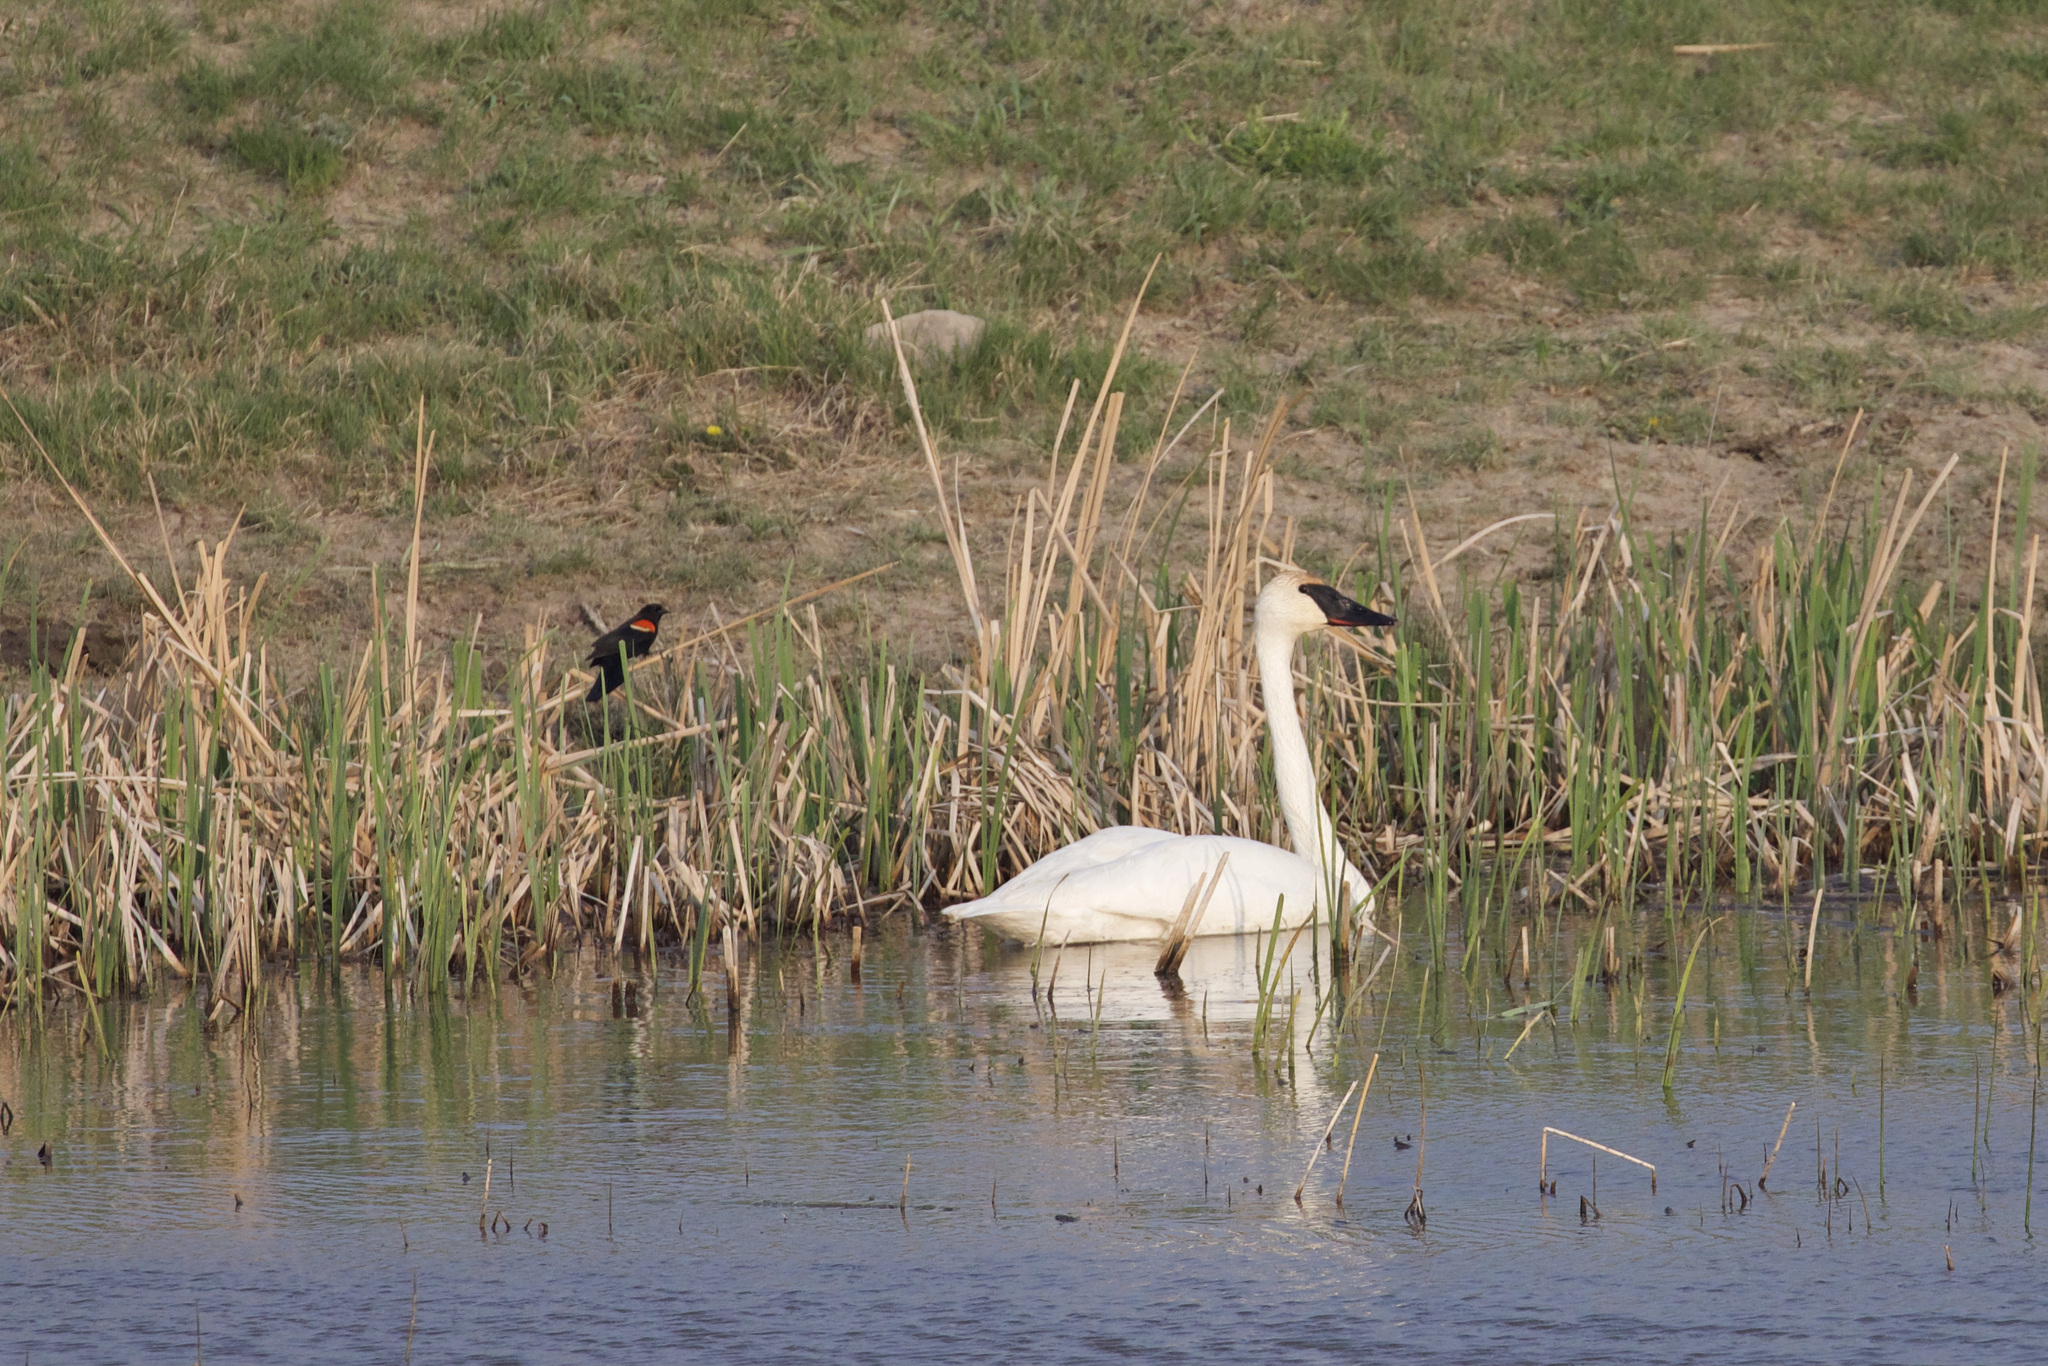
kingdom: Animalia
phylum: Chordata
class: Aves
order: Passeriformes
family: Icteridae
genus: Agelaius
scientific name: Agelaius phoeniceus
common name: Red-winged blackbird
